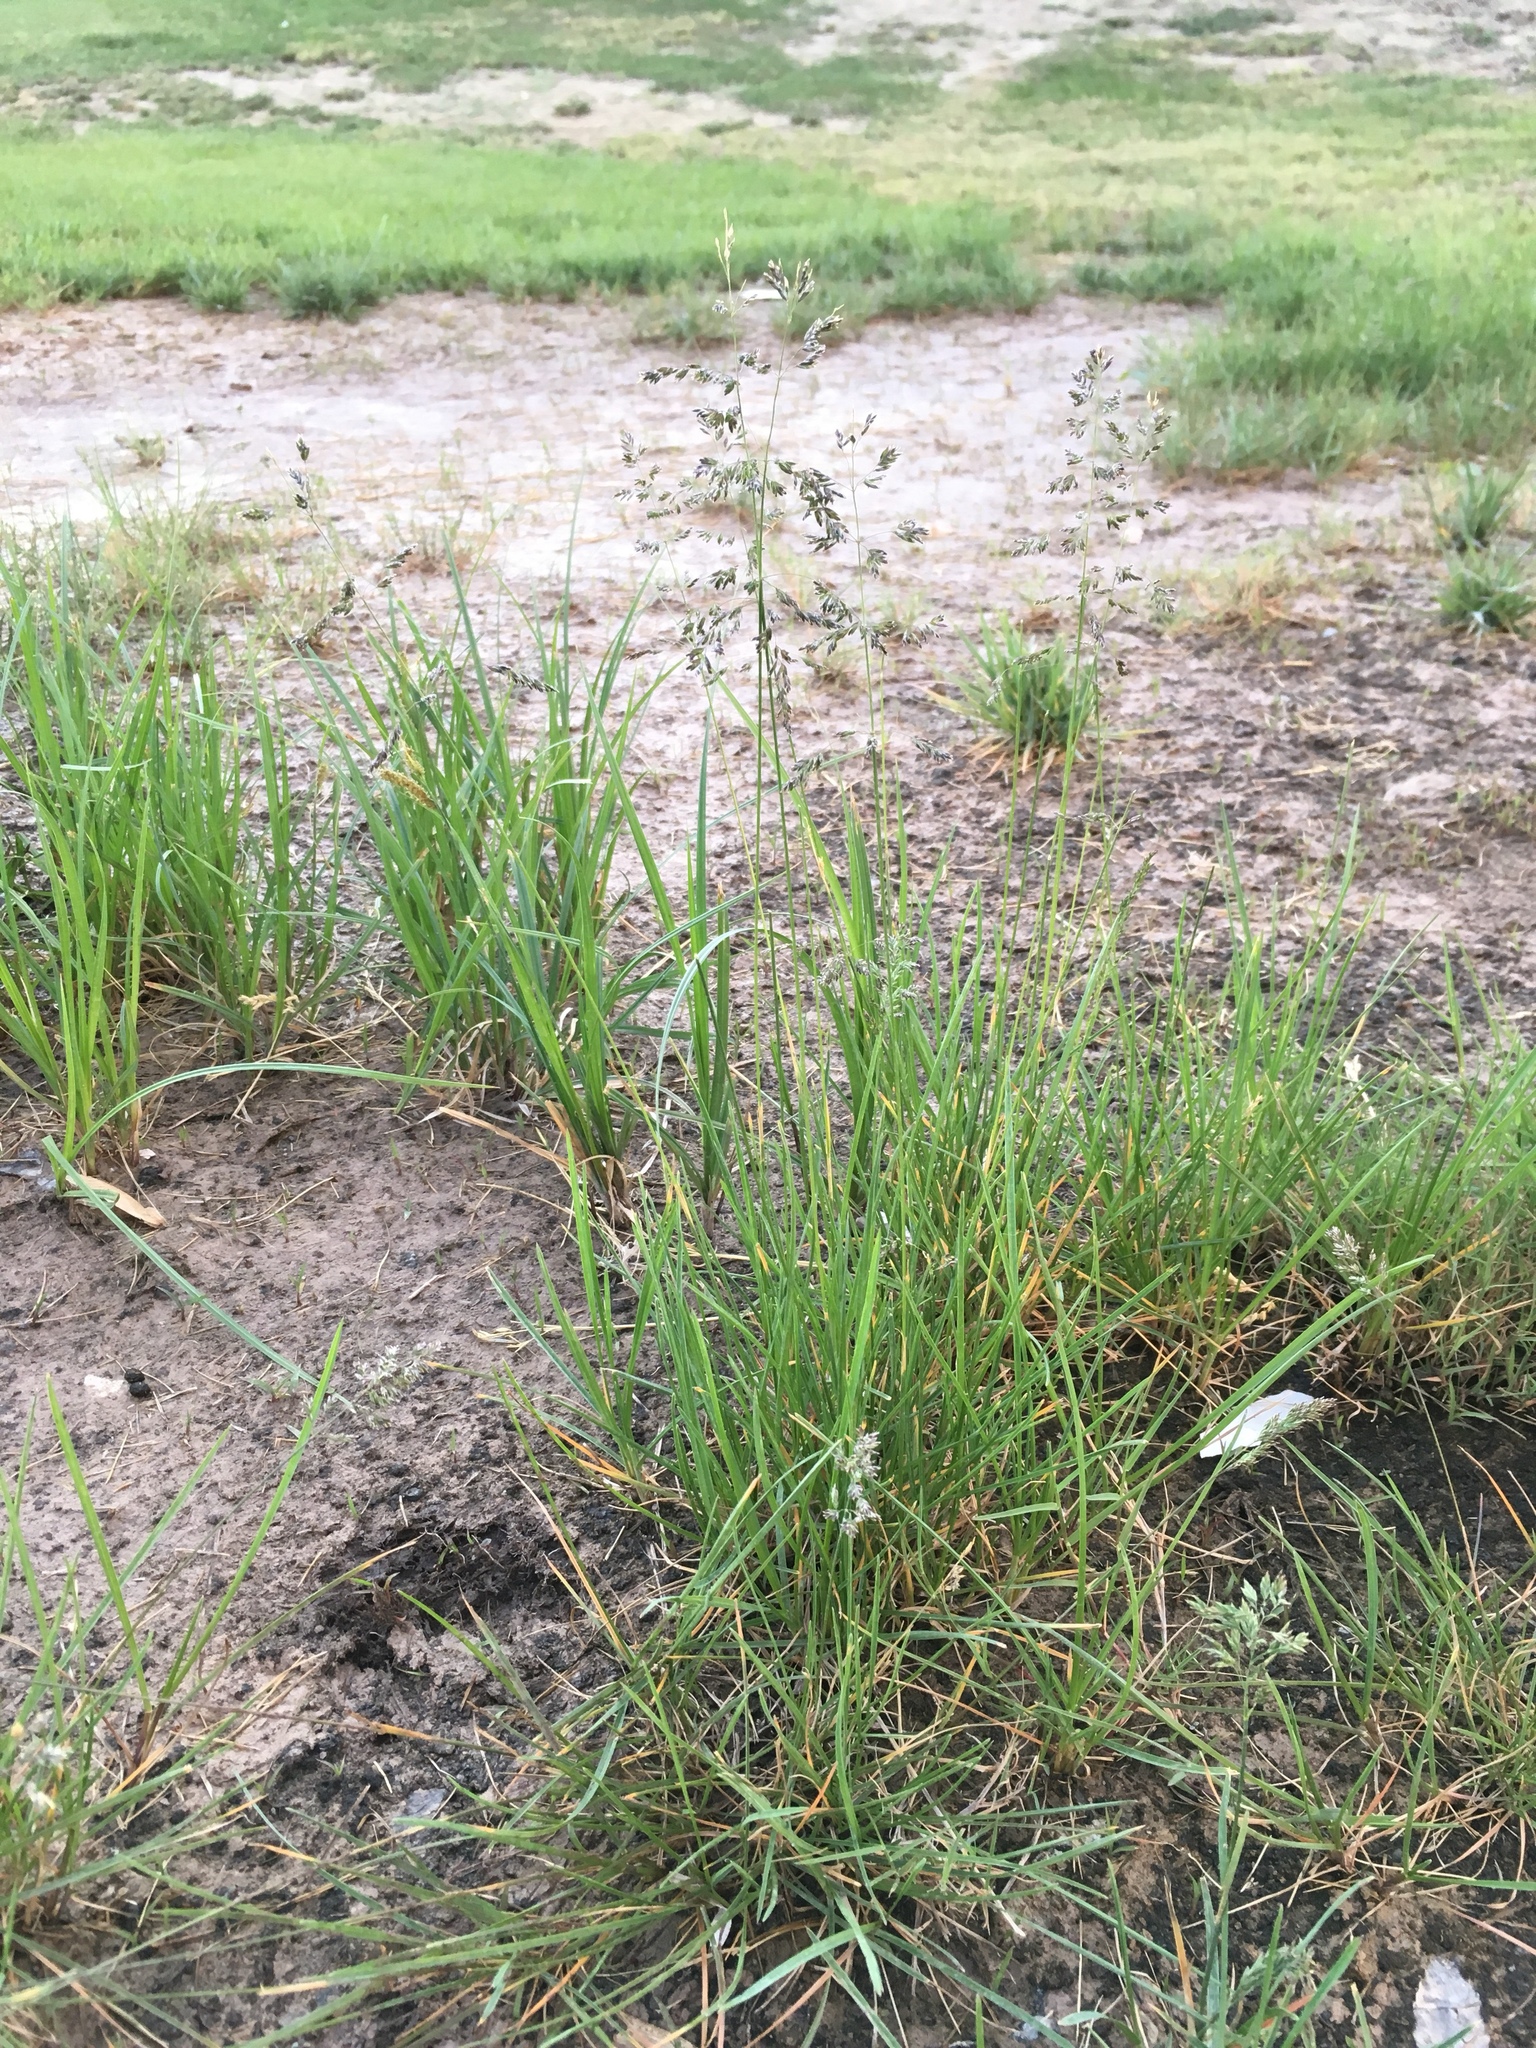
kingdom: Plantae
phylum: Tracheophyta
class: Liliopsida
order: Poales
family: Poaceae
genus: Poa
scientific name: Poa pratensis
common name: Kentucky bluegrass
